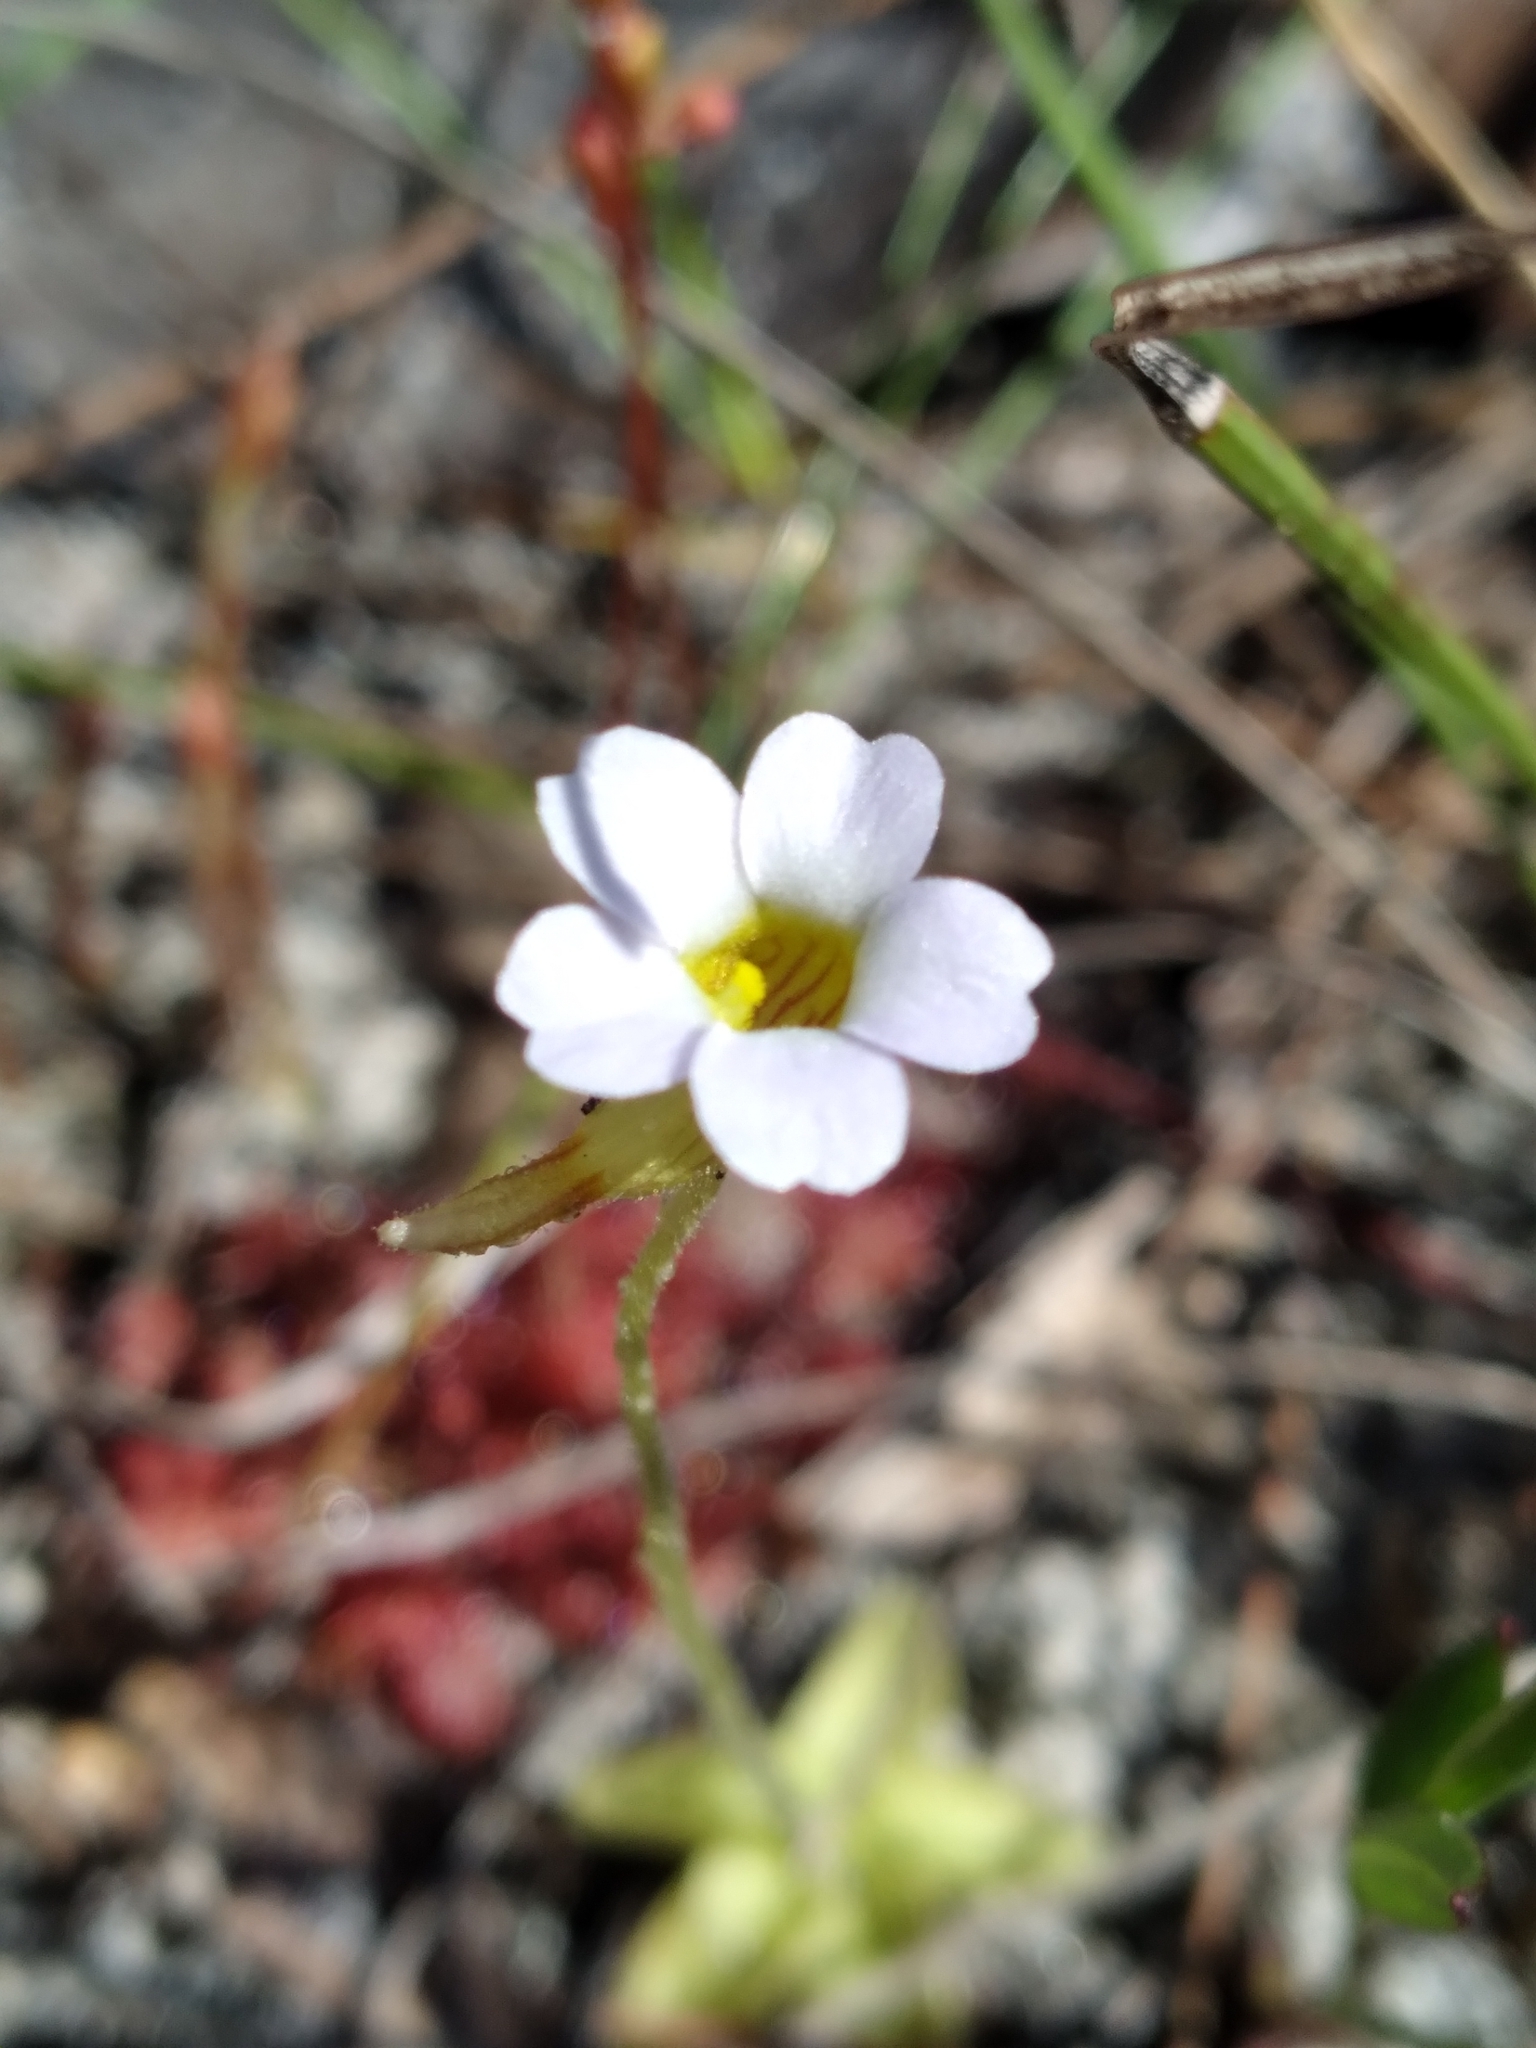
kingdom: Plantae
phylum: Tracheophyta
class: Magnoliopsida
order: Lamiales
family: Lentibulariaceae
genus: Pinguicula
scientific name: Pinguicula pumila
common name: Small butterwort
